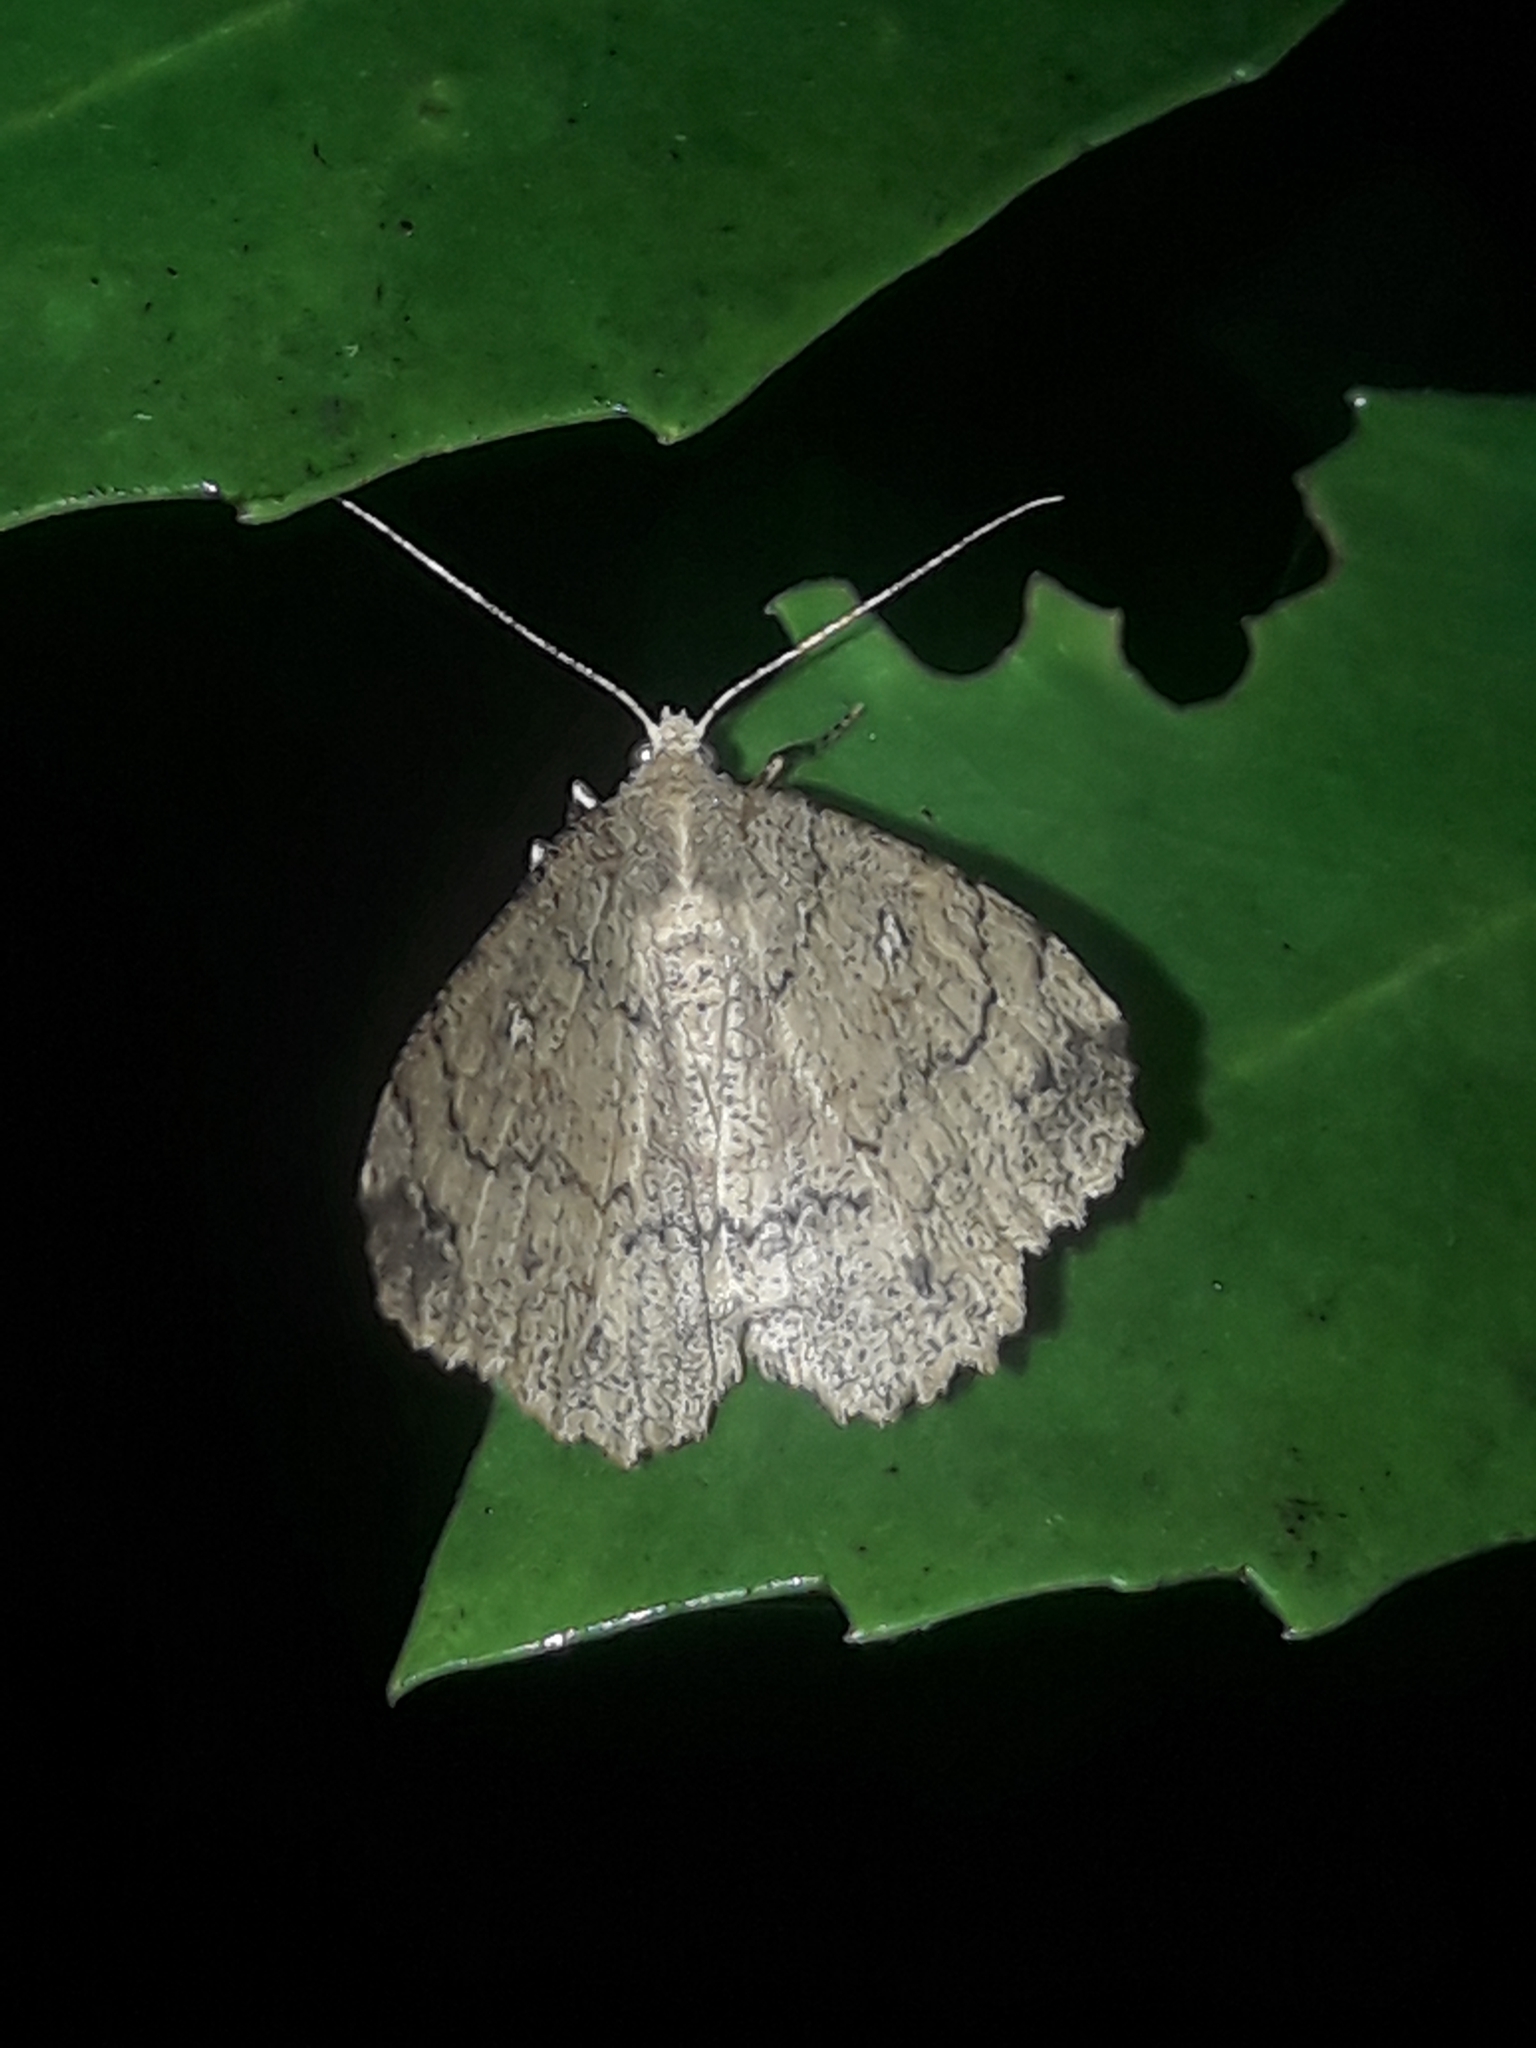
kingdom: Animalia
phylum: Arthropoda
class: Insecta
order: Lepidoptera
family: Geometridae
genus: Cleora
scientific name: Cleora scriptaria
